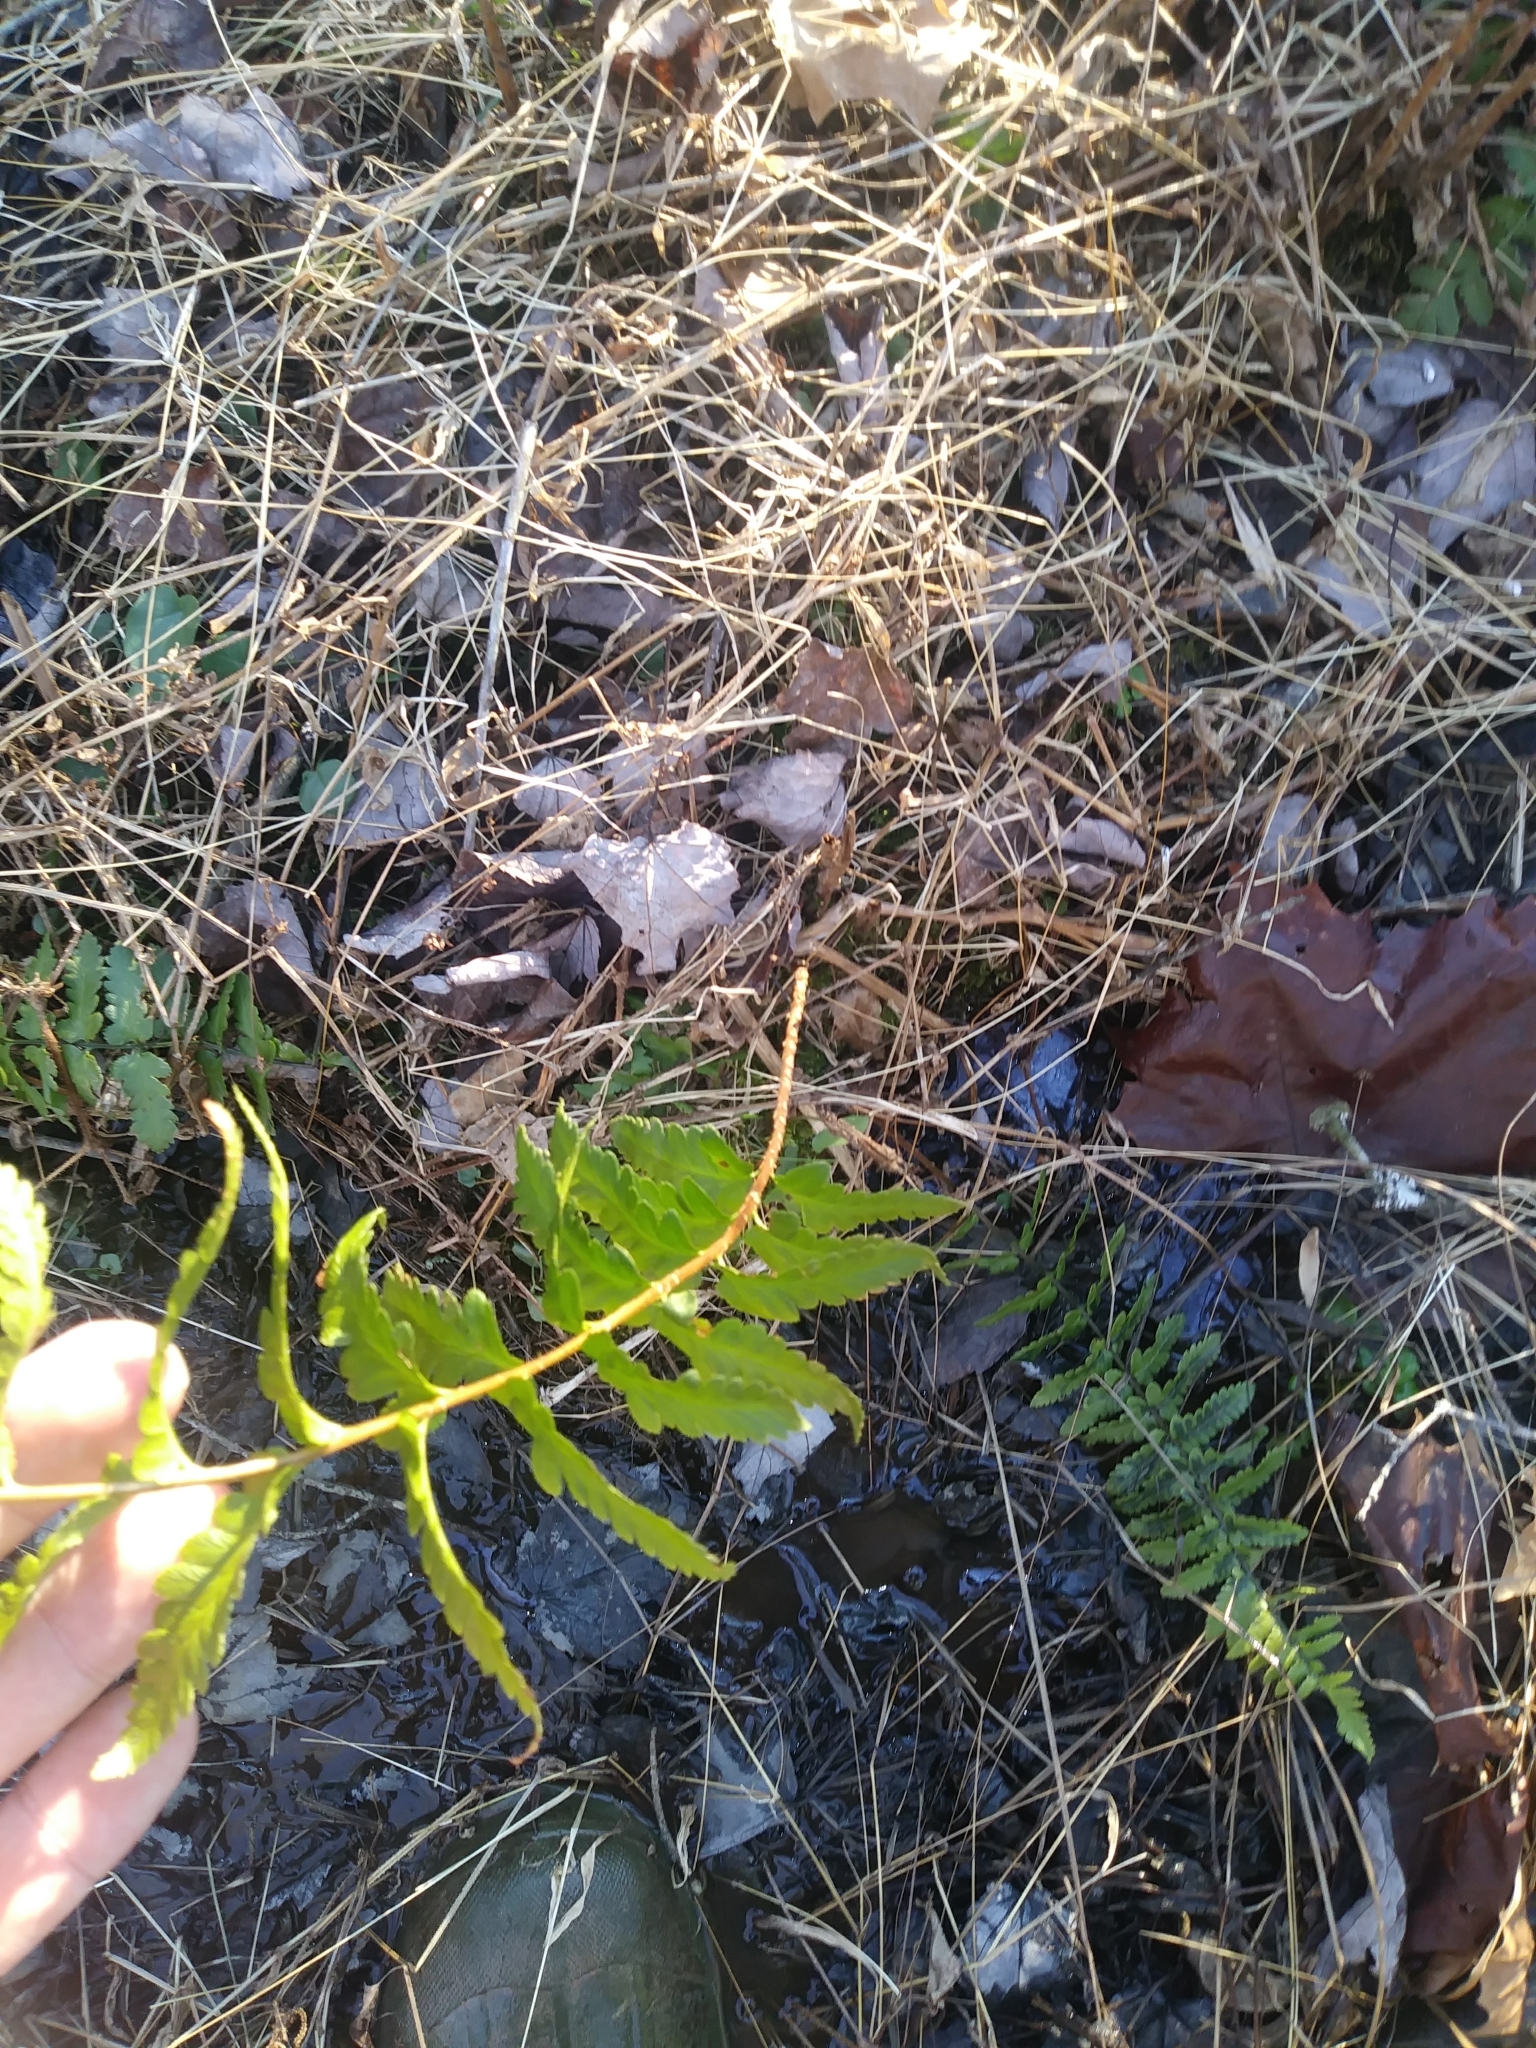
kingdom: Plantae
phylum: Tracheophyta
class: Polypodiopsida
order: Polypodiales
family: Dryopteridaceae
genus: Dryopteris
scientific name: Dryopteris cristata
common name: Crested wood fern
